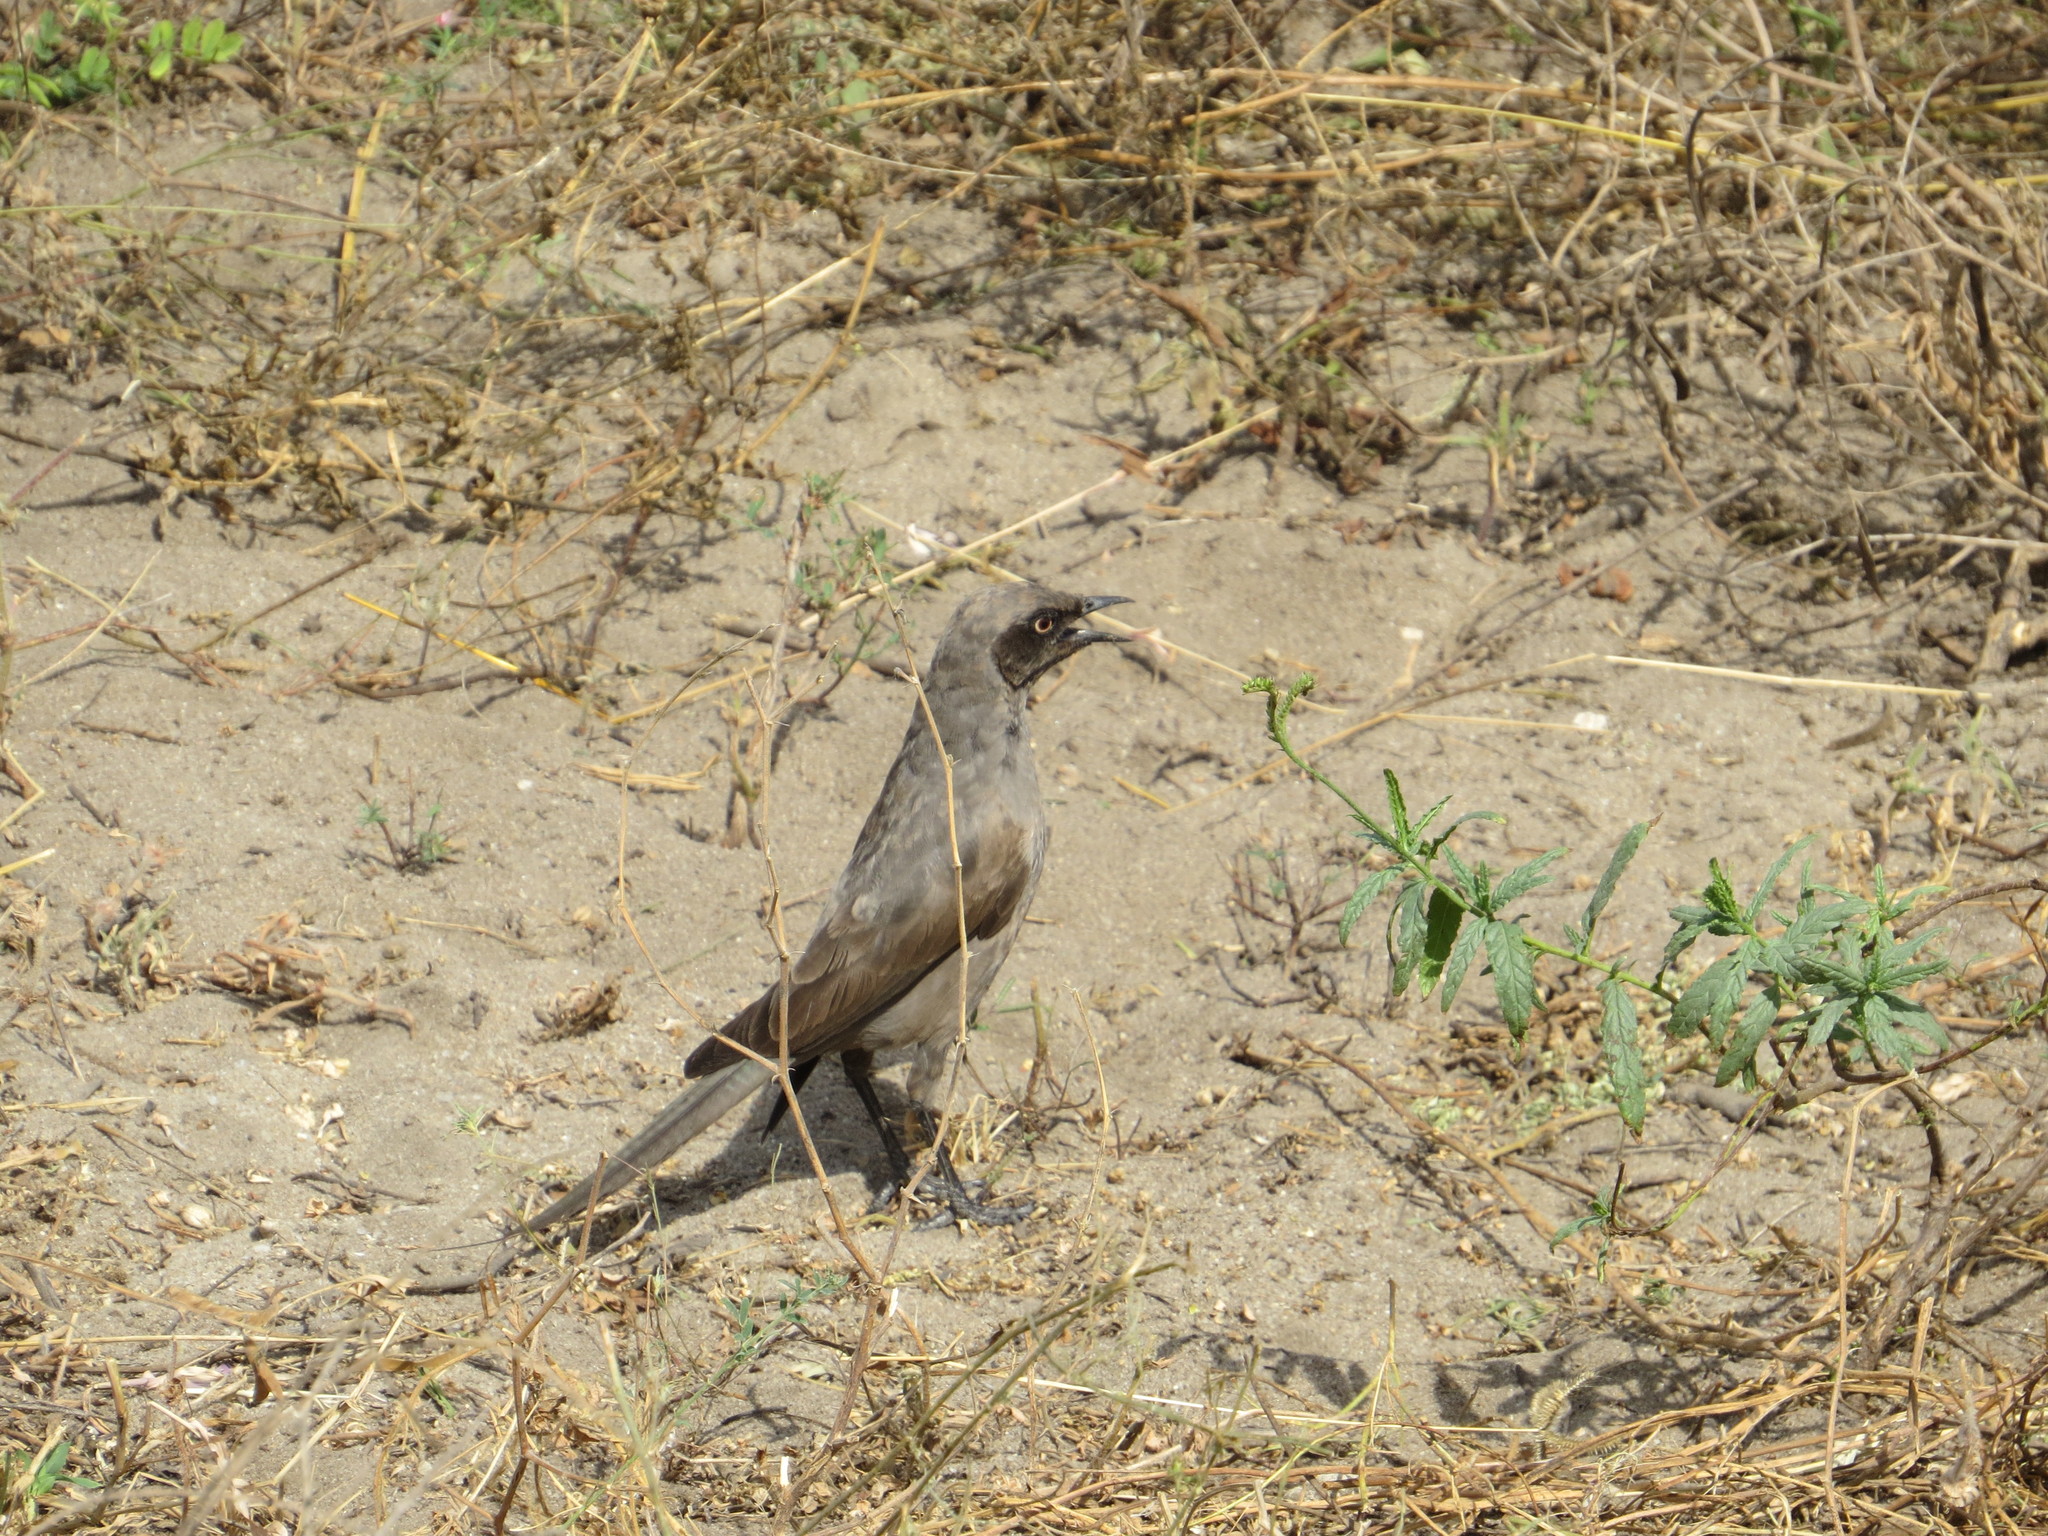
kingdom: Animalia
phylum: Chordata
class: Aves
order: Passeriformes
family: Sturnidae
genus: Lamprotornis
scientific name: Lamprotornis unicolor
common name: Ashy starling
